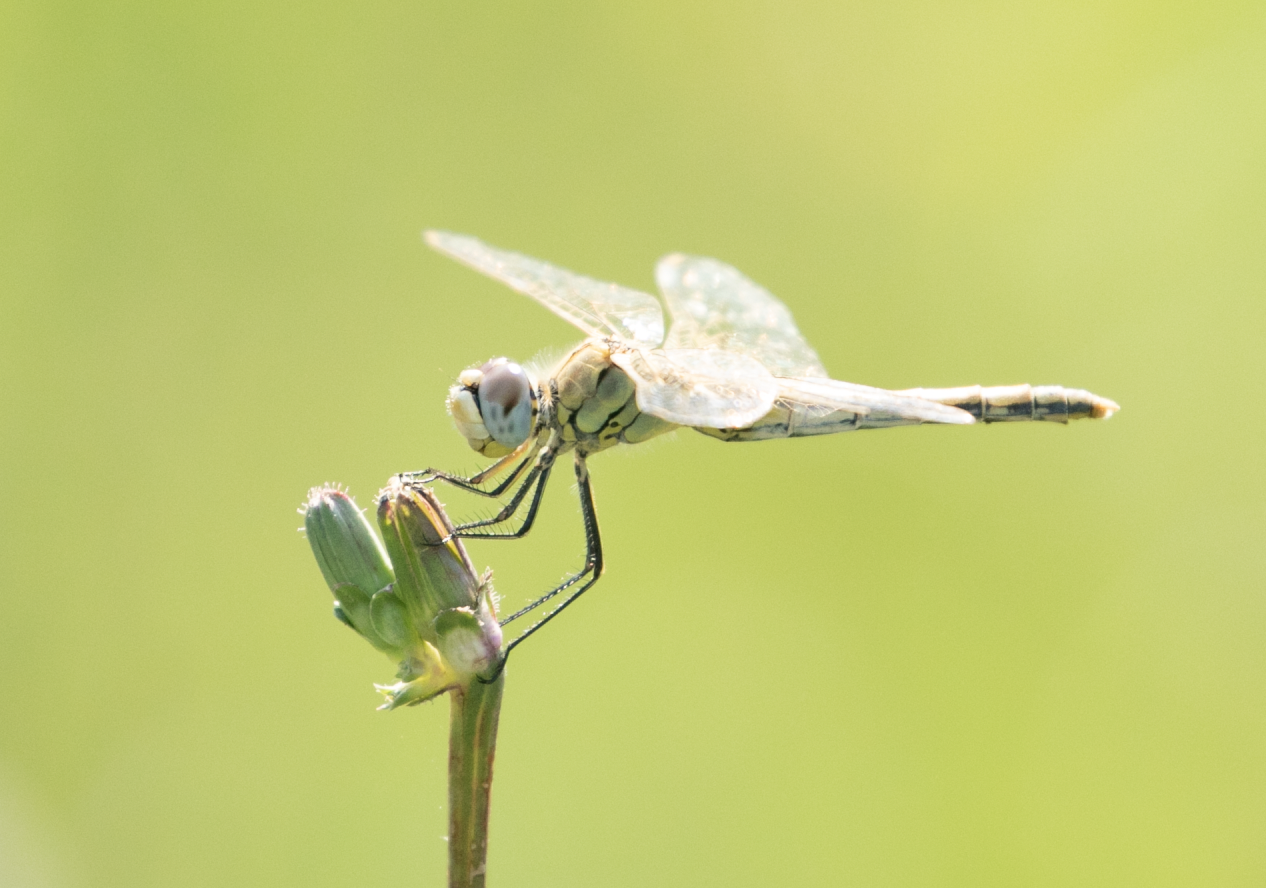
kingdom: Animalia
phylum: Arthropoda
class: Insecta
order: Odonata
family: Libellulidae
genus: Sympetrum
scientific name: Sympetrum fonscolombii
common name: Red-veined darter
